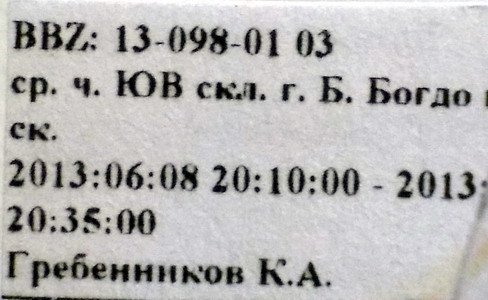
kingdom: Animalia
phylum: Arthropoda
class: Insecta
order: Hemiptera
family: Pentatomidae
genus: Carpocoris
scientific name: Carpocoris coreanus
